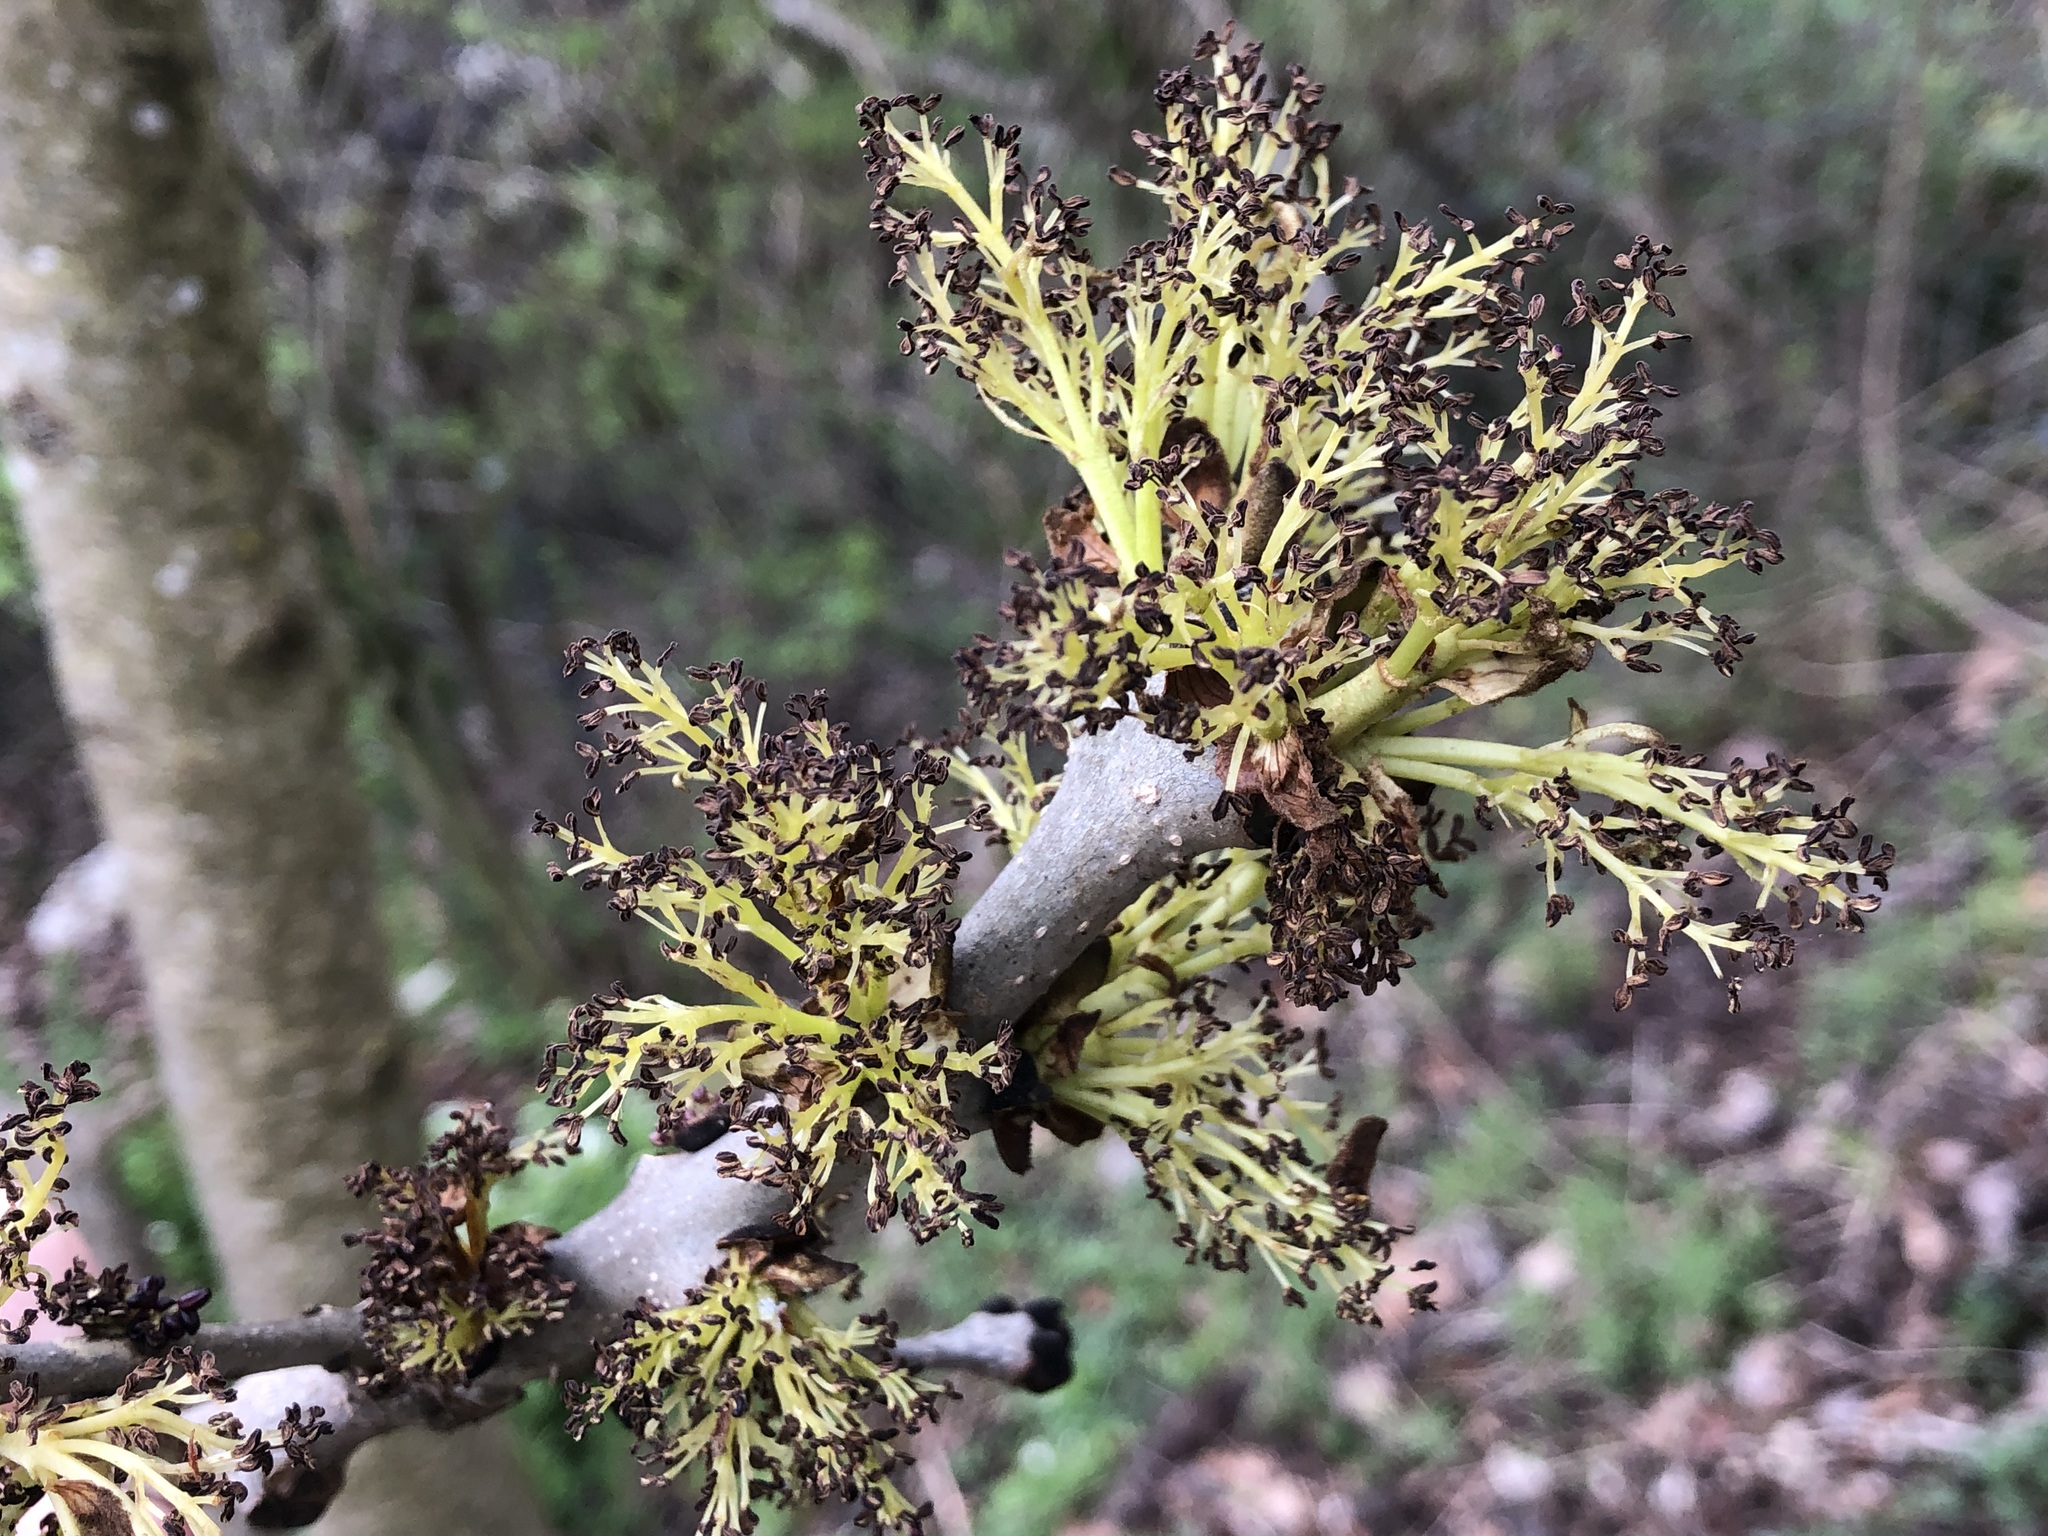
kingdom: Plantae
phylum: Tracheophyta
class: Magnoliopsida
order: Lamiales
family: Oleaceae
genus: Fraxinus
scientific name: Fraxinus excelsior
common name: European ash
